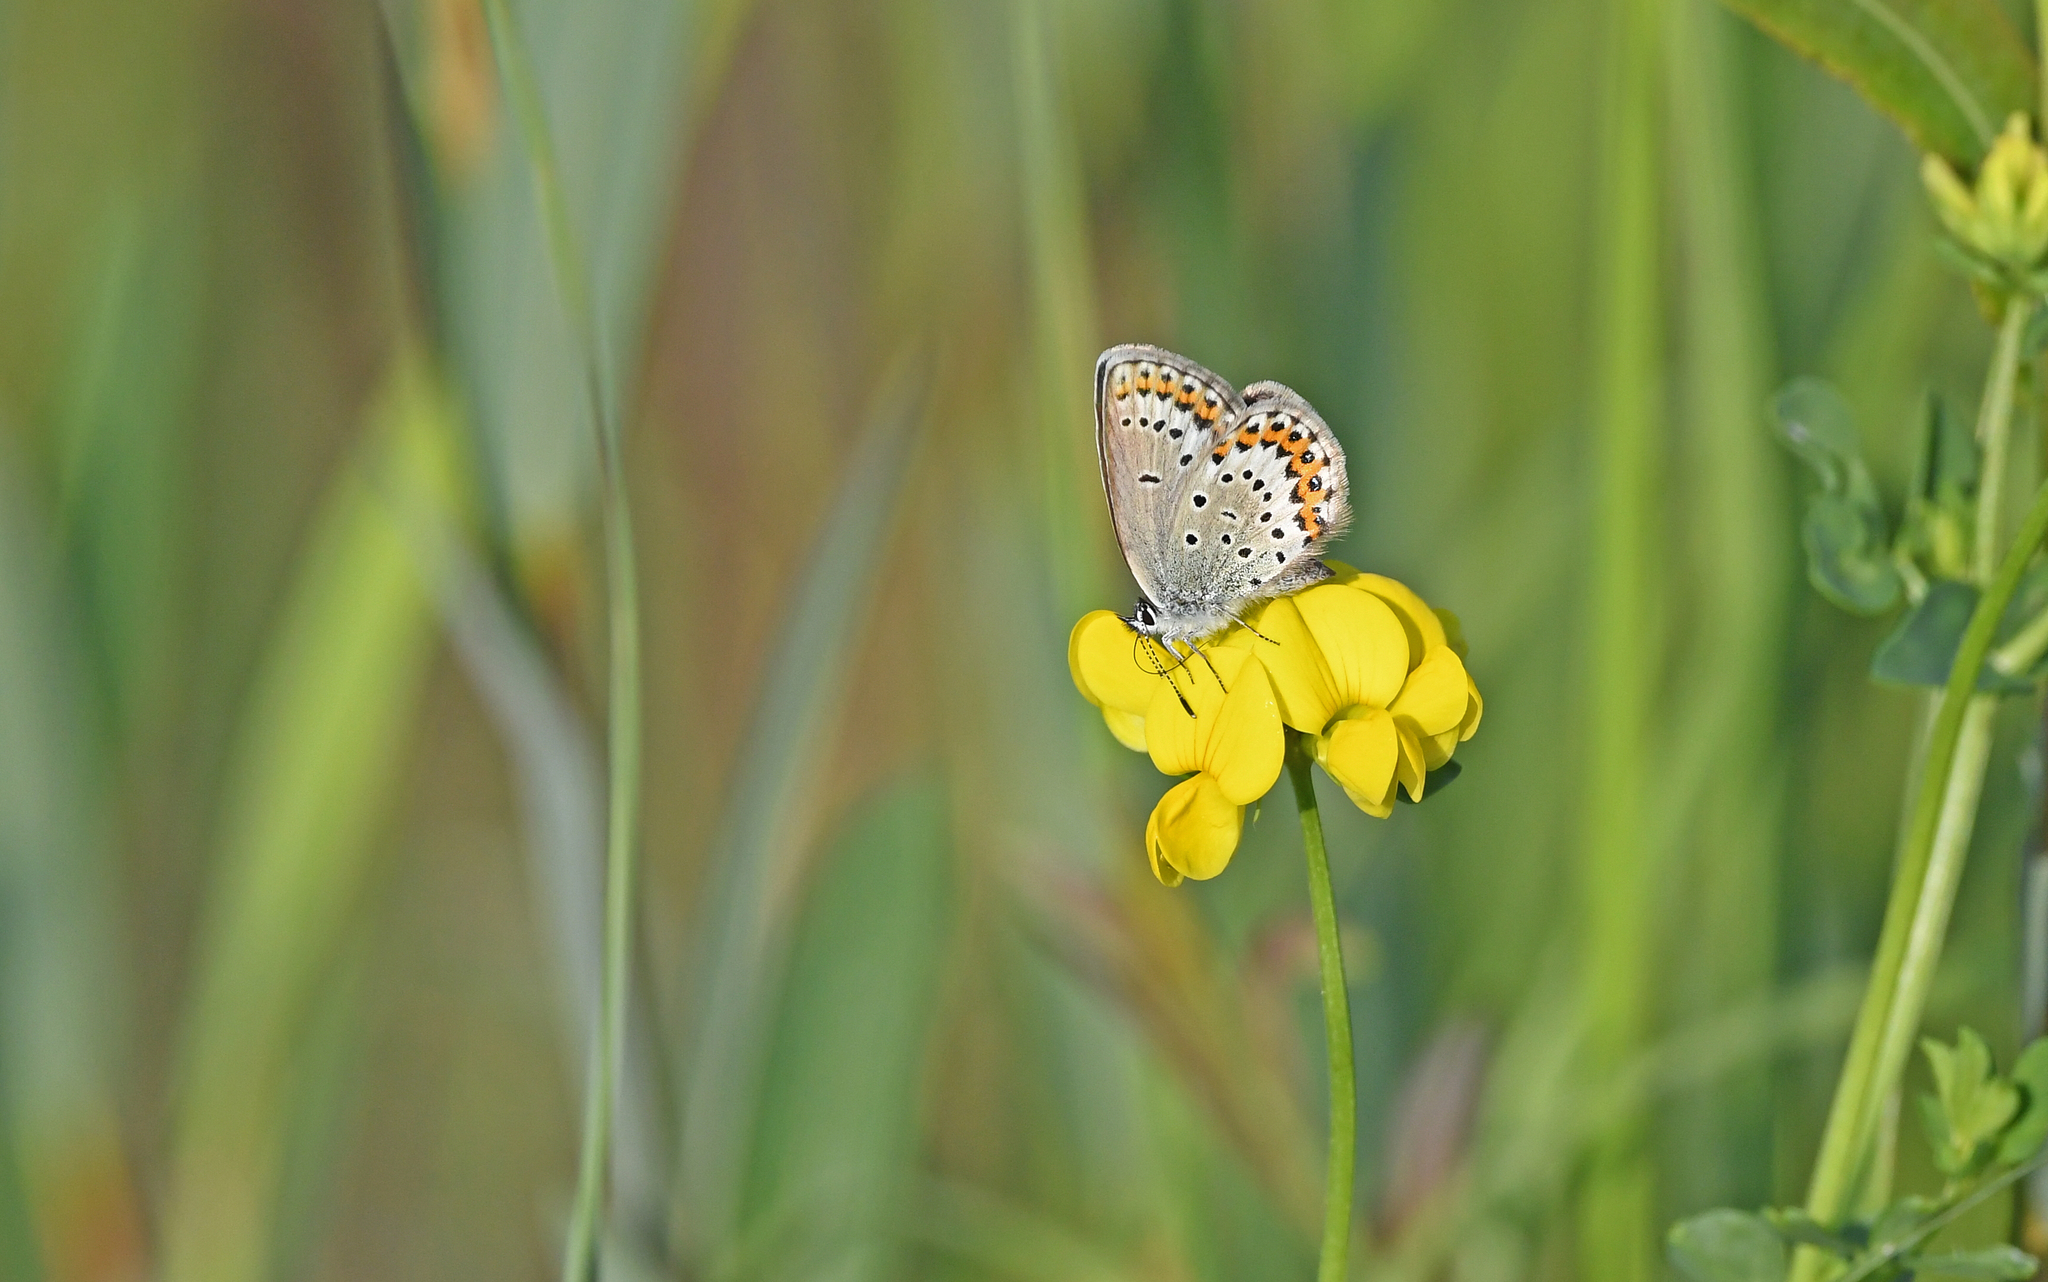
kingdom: Animalia
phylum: Arthropoda
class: Insecta
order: Lepidoptera
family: Lycaenidae
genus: Lycaeides
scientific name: Lycaeides idas
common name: Northern blue
